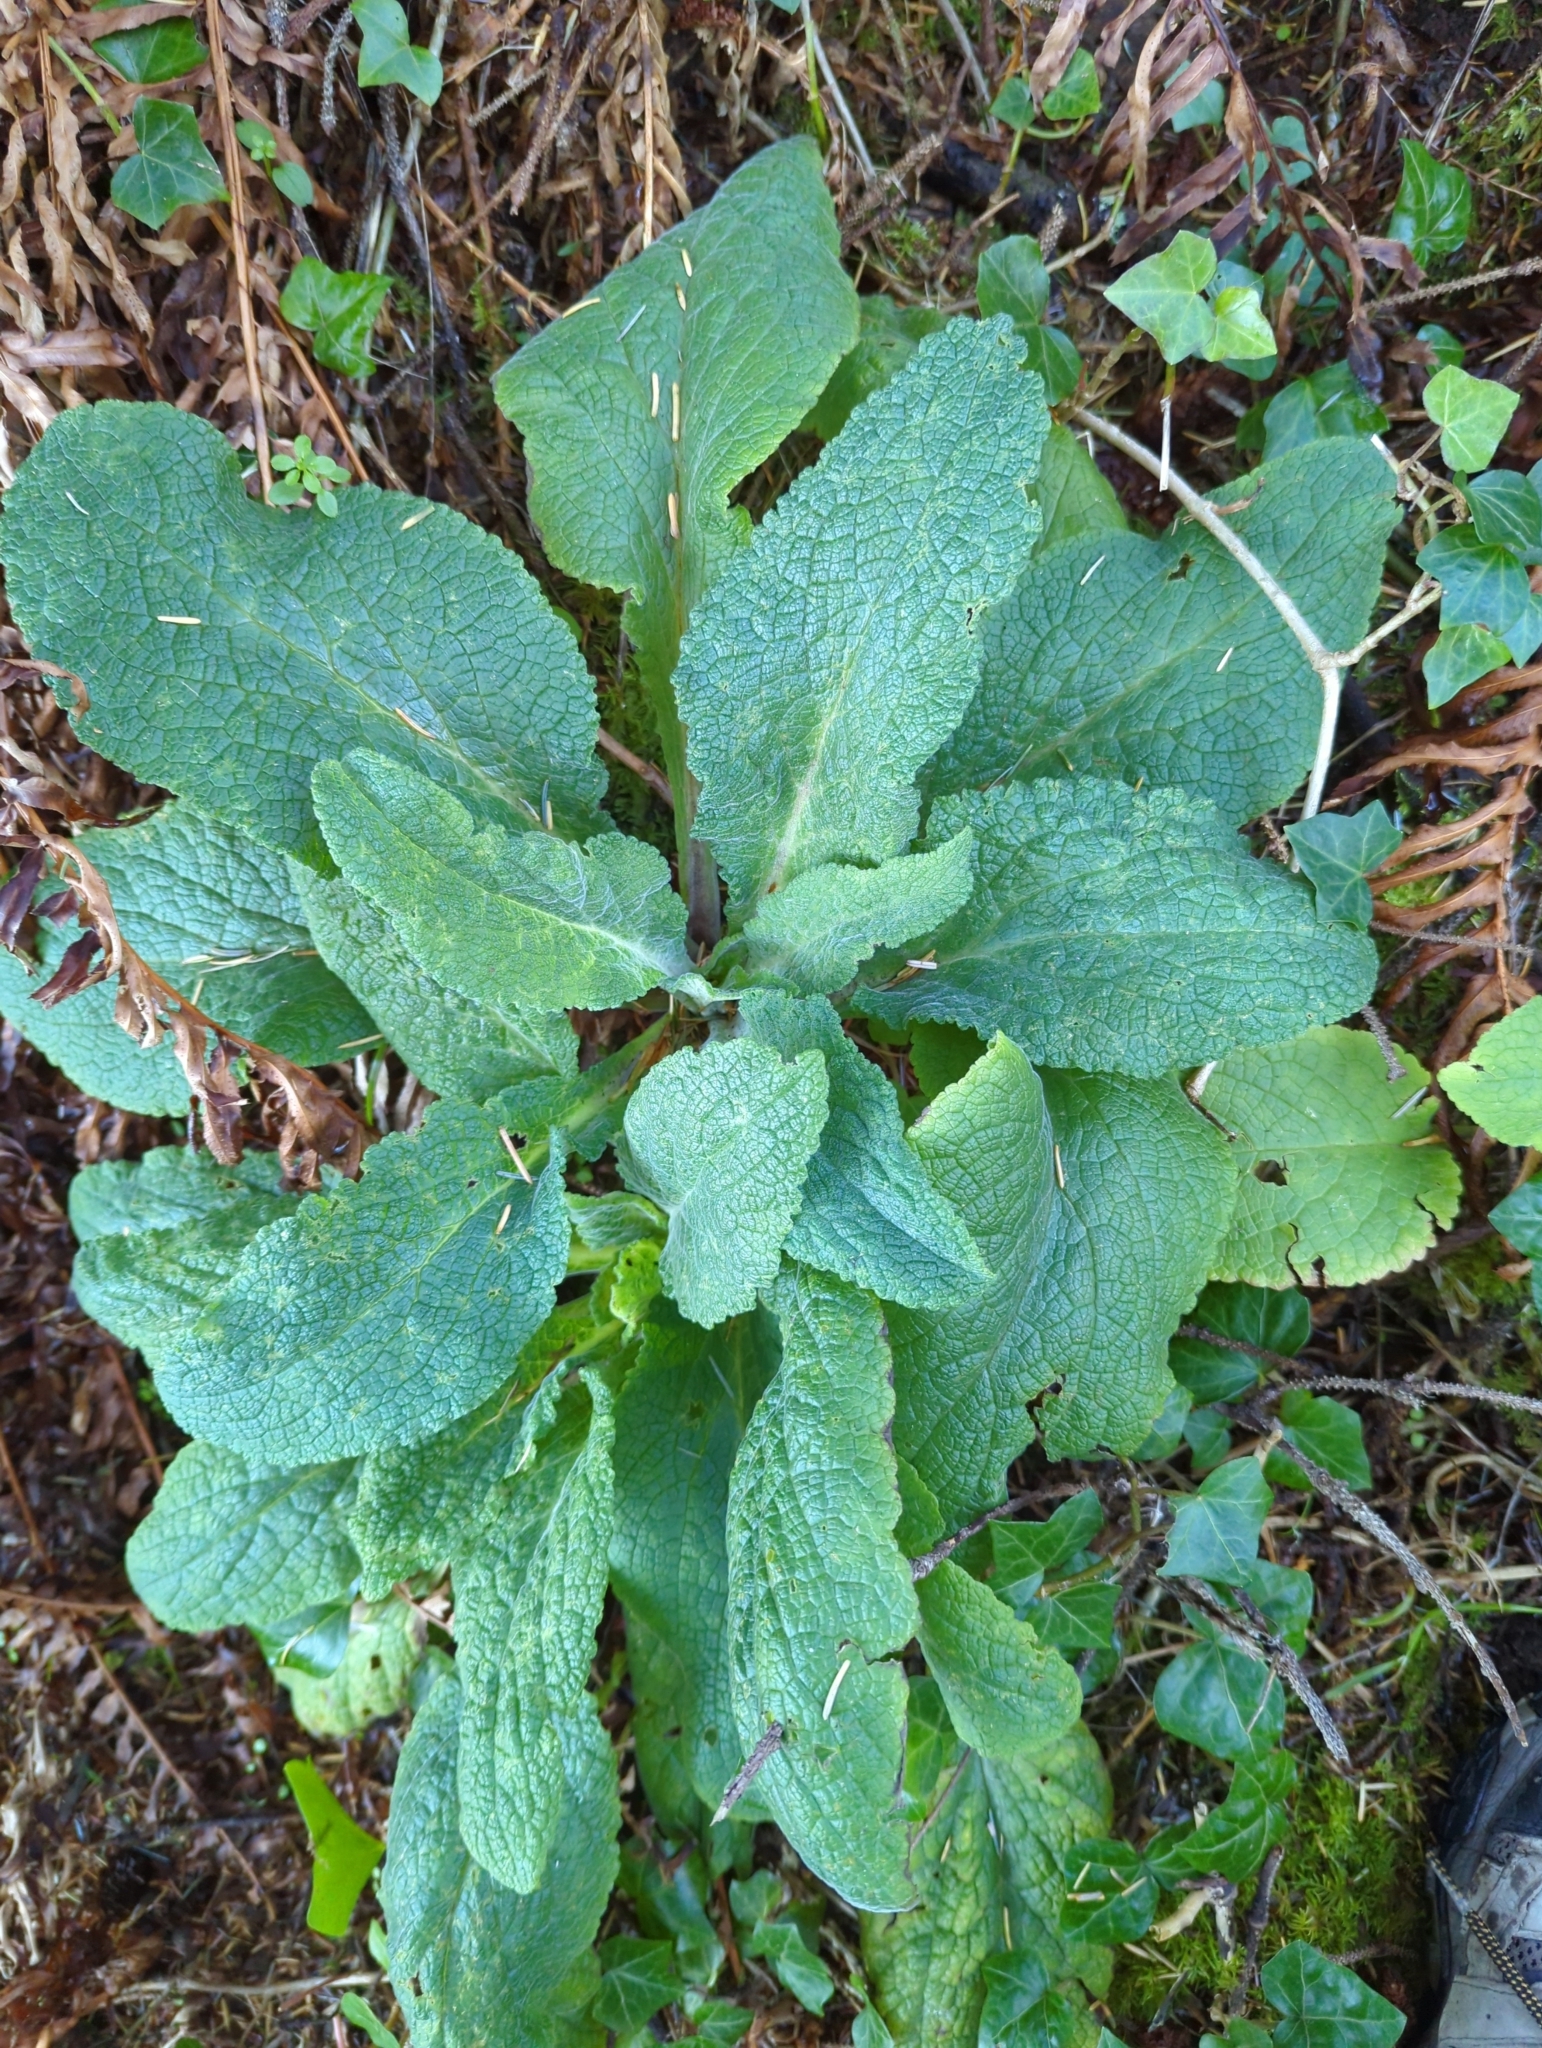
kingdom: Plantae
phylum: Tracheophyta
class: Magnoliopsida
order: Lamiales
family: Plantaginaceae
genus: Digitalis
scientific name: Digitalis purpurea
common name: Foxglove
